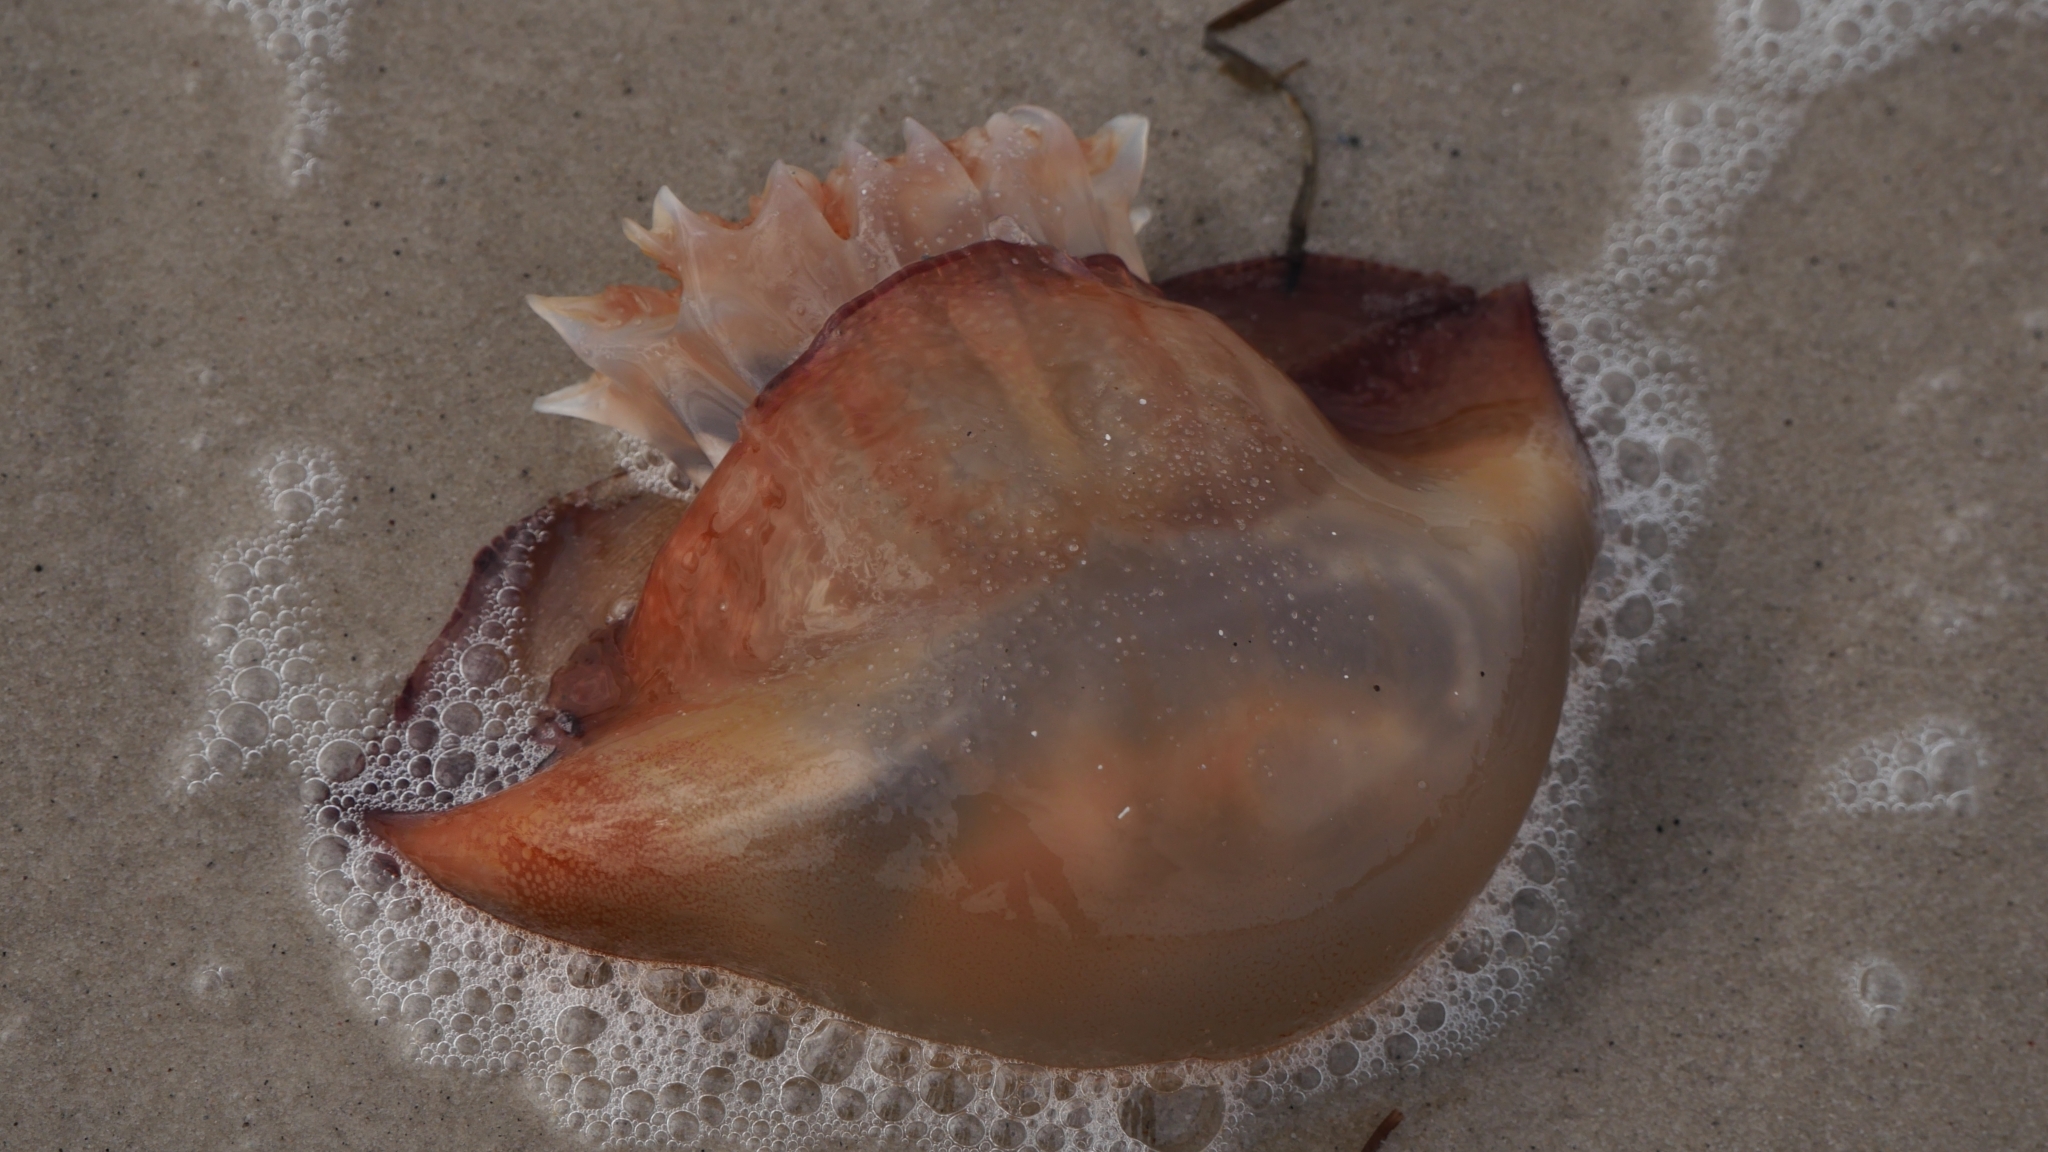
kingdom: Animalia
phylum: Cnidaria
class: Scyphozoa
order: Rhizostomeae
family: Stomolophidae
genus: Stomolophus
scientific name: Stomolophus meleagris
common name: Cabbagehead
